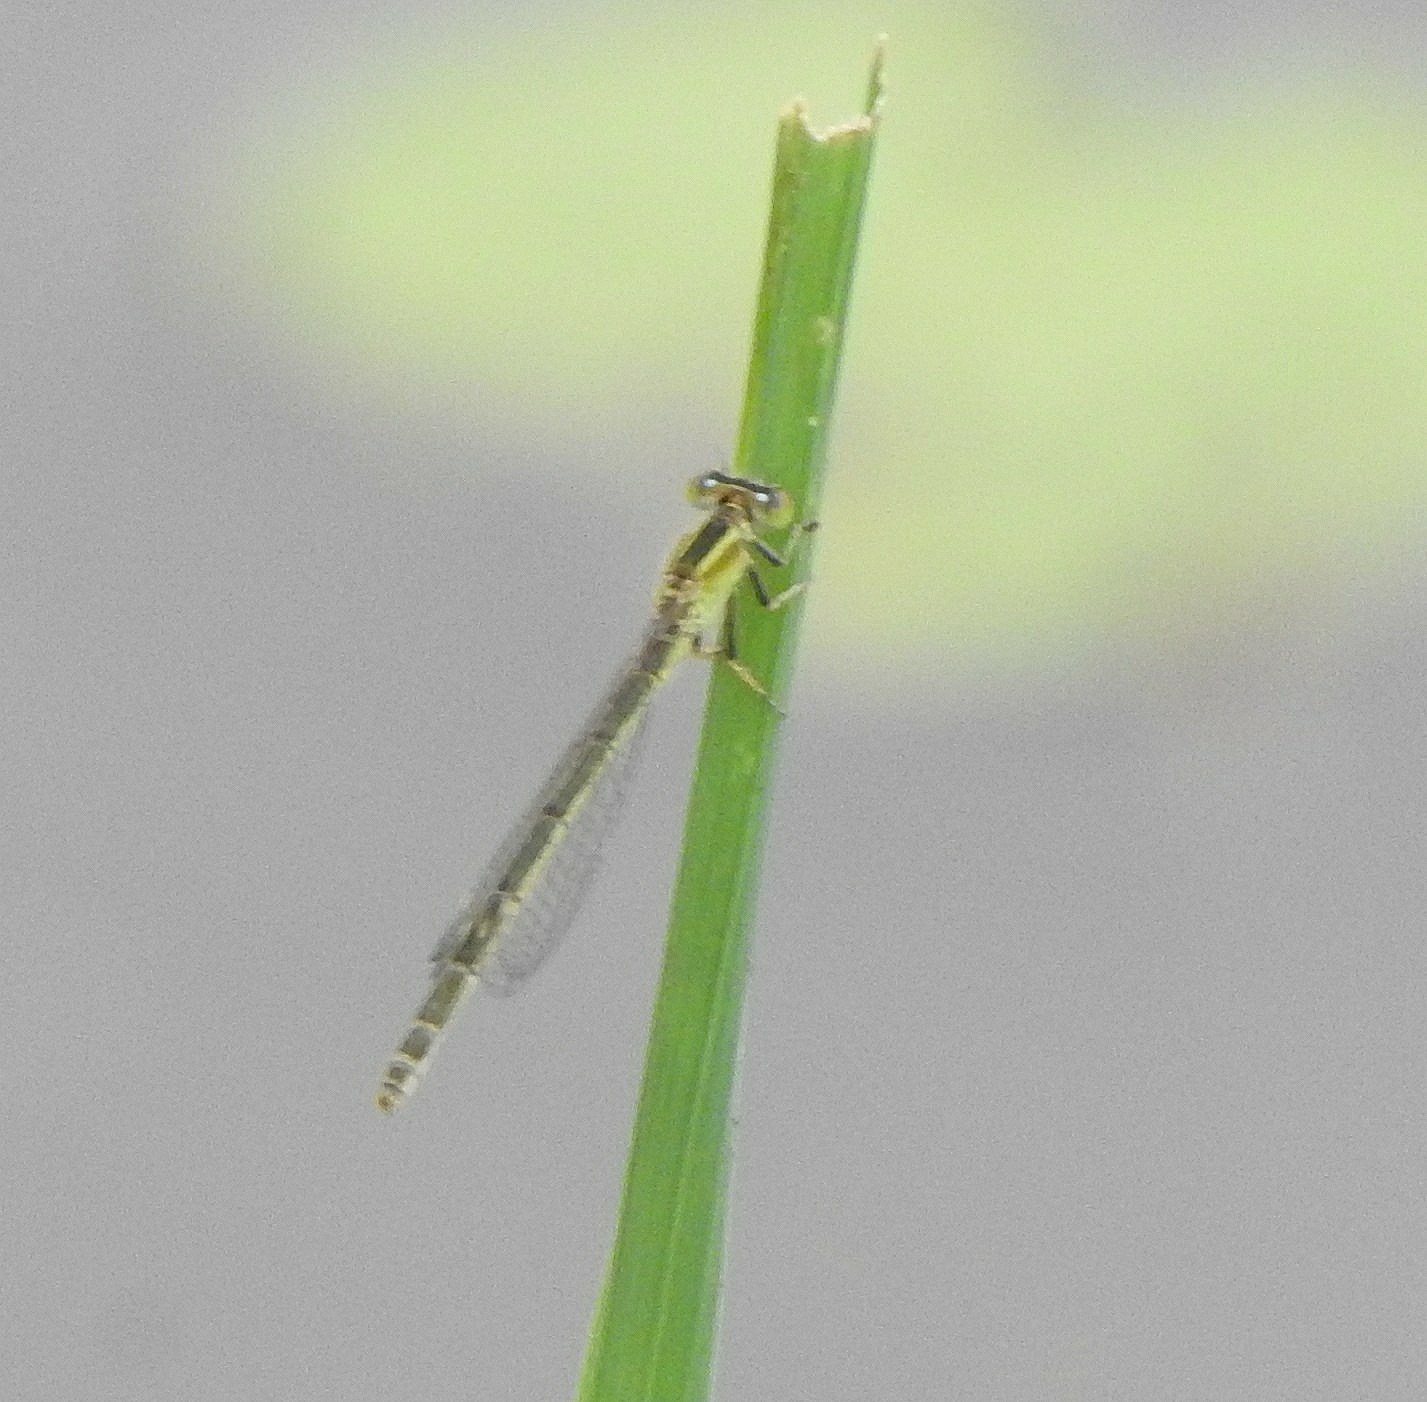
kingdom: Animalia
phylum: Arthropoda
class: Insecta
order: Odonata
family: Coenagrionidae
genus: Ischnura
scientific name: Ischnura senegalensis
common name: Tropical bluetail
